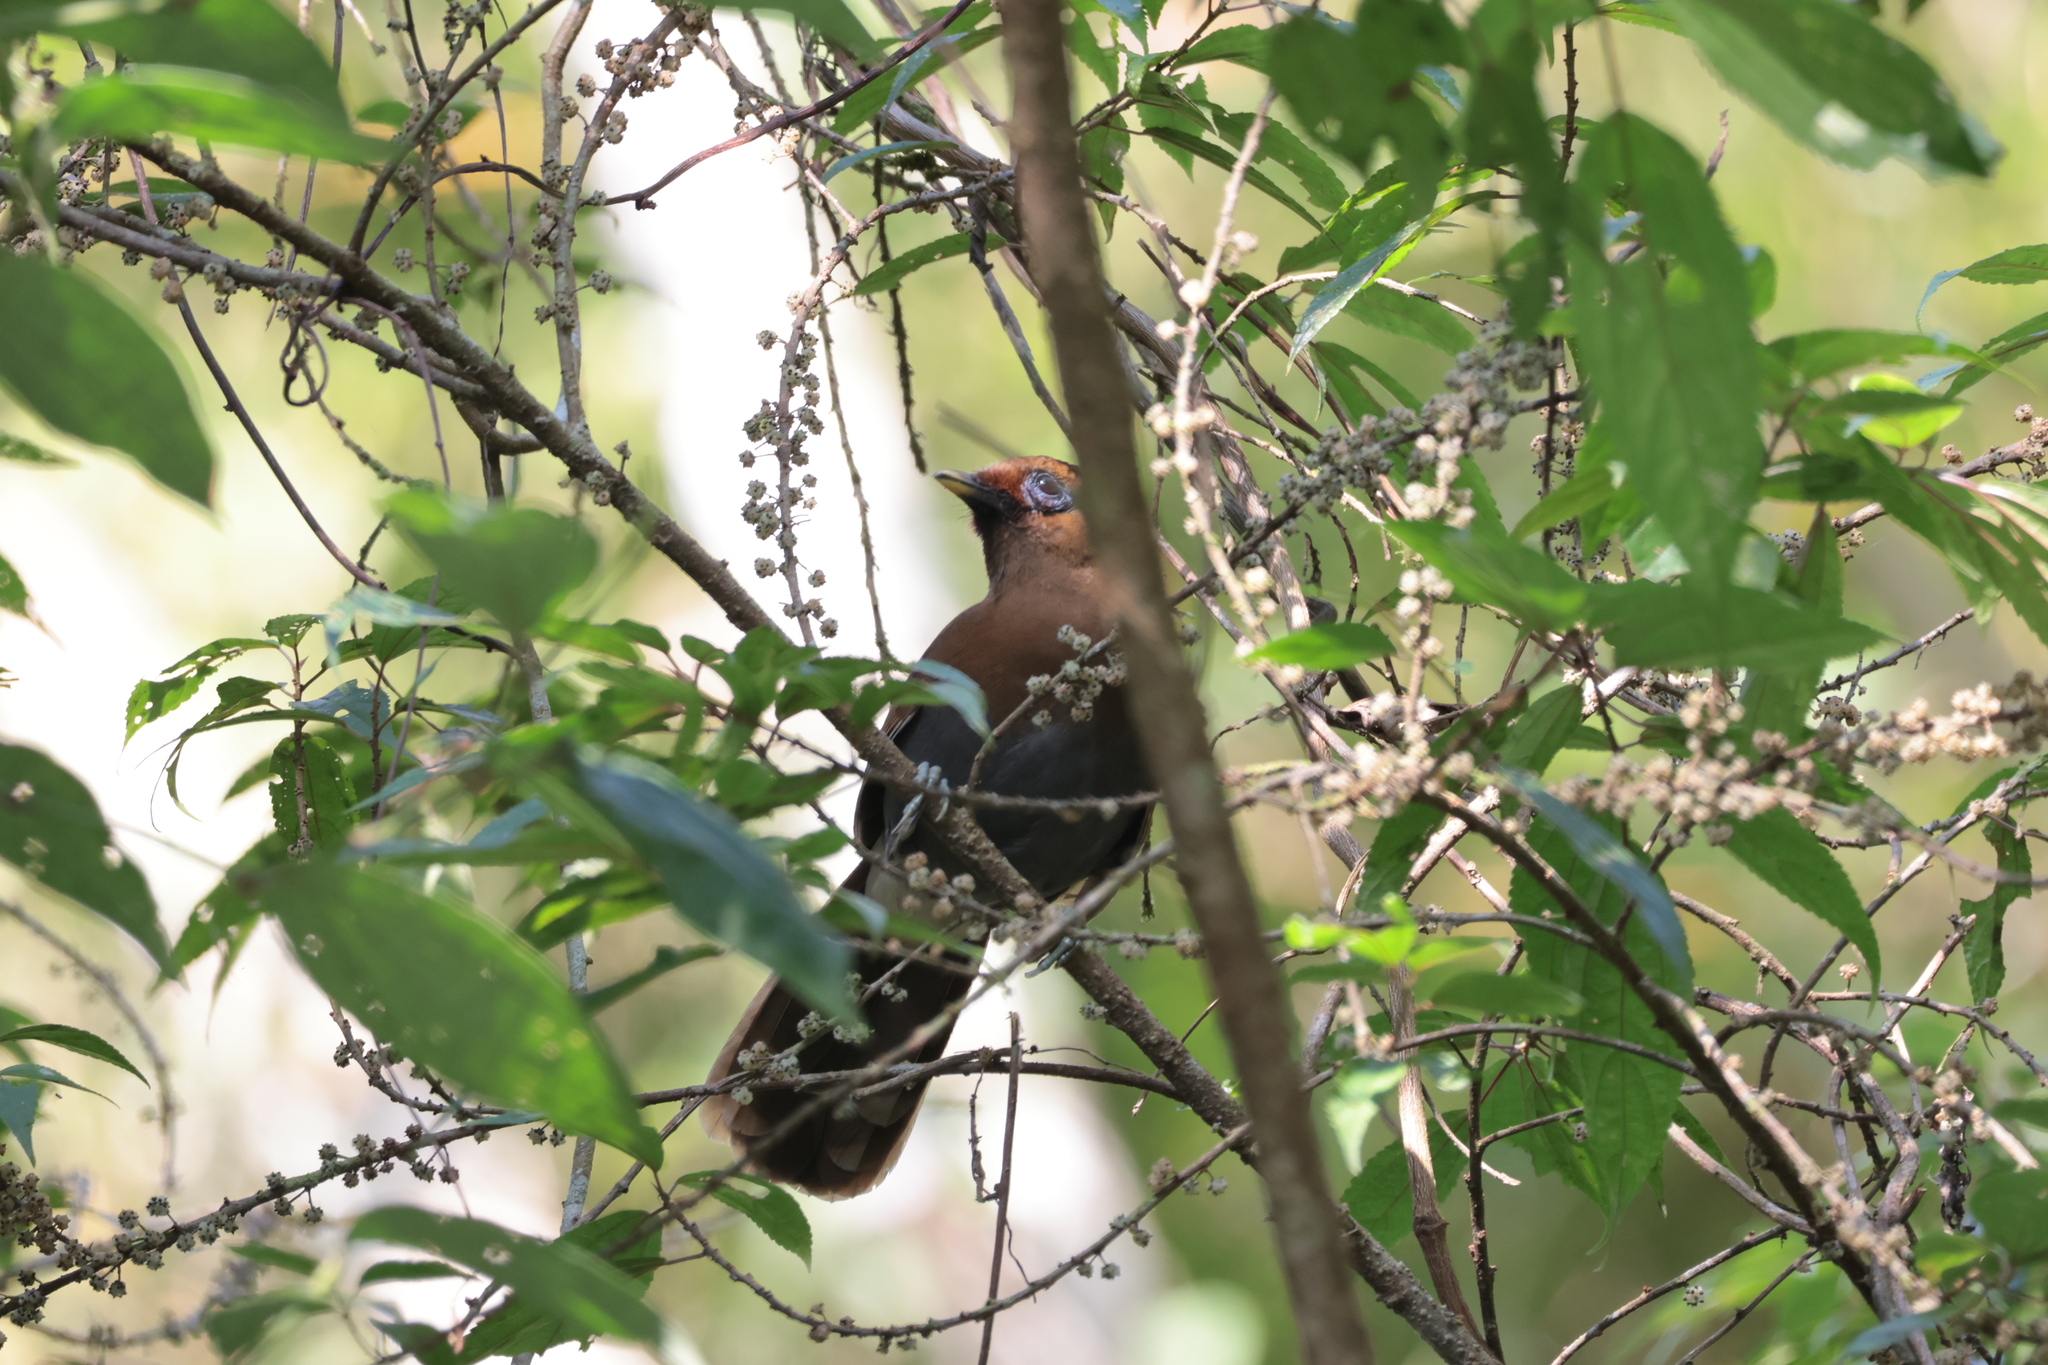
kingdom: Animalia
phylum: Chordata
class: Aves
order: Passeriformes
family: Leiothrichidae
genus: Garrulax
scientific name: Garrulax poecilorhynchus
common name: Rusty laughingthrush
